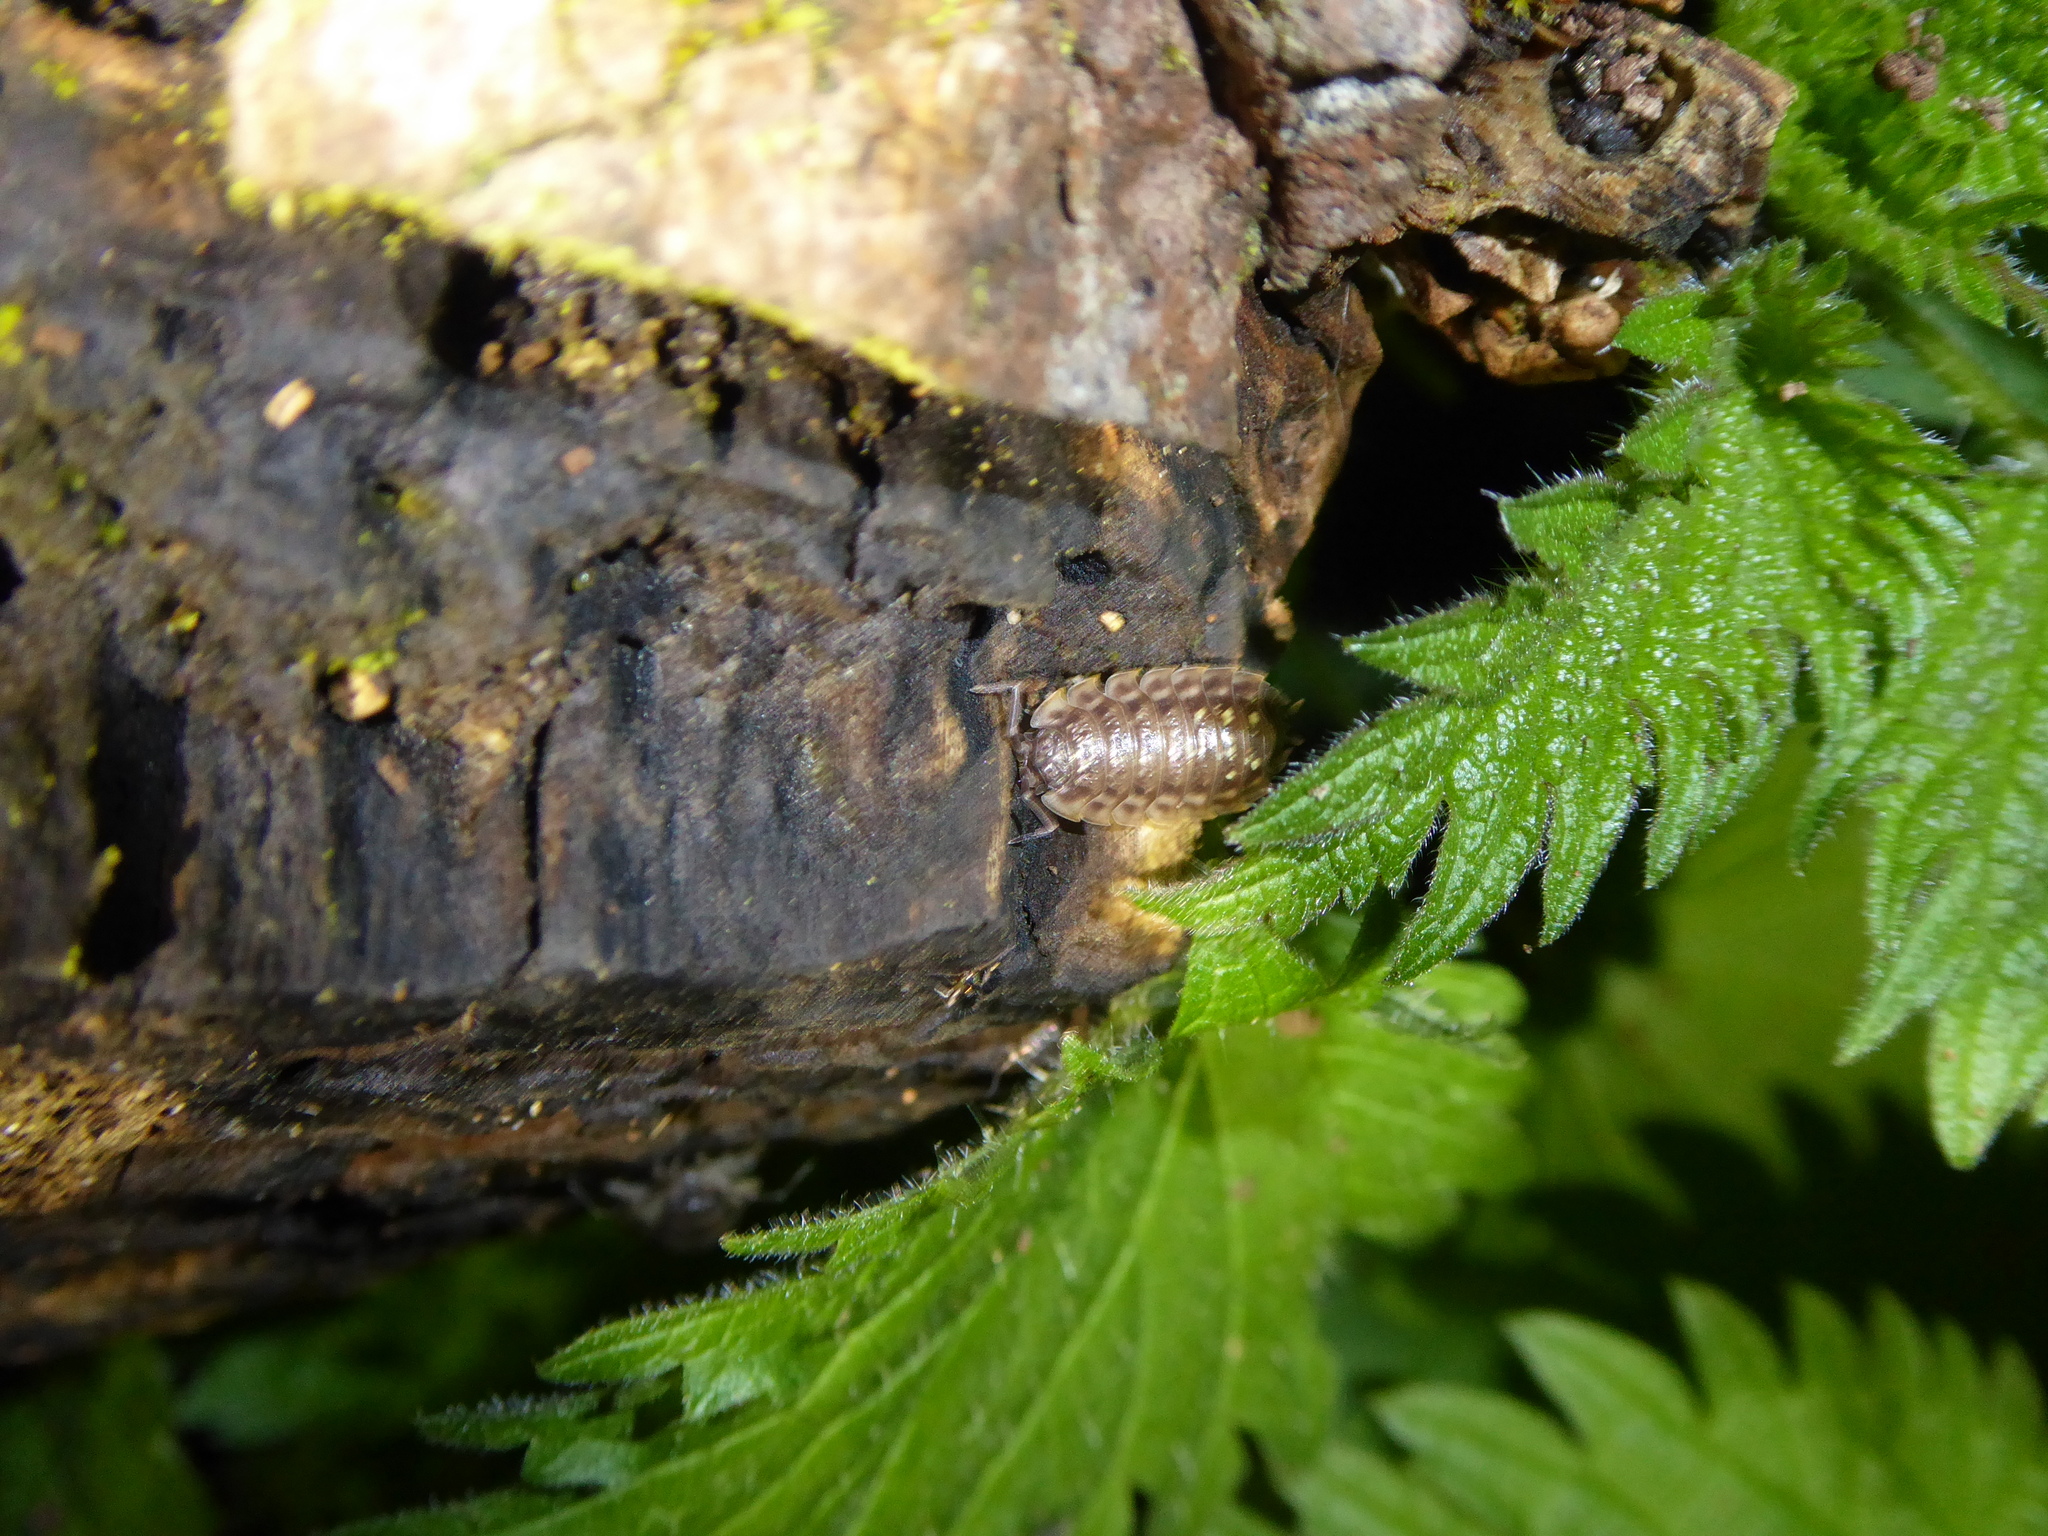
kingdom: Animalia
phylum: Arthropoda
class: Malacostraca
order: Isopoda
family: Oniscidae
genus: Oniscus
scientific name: Oniscus asellus
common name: Common shiny woodlouse
